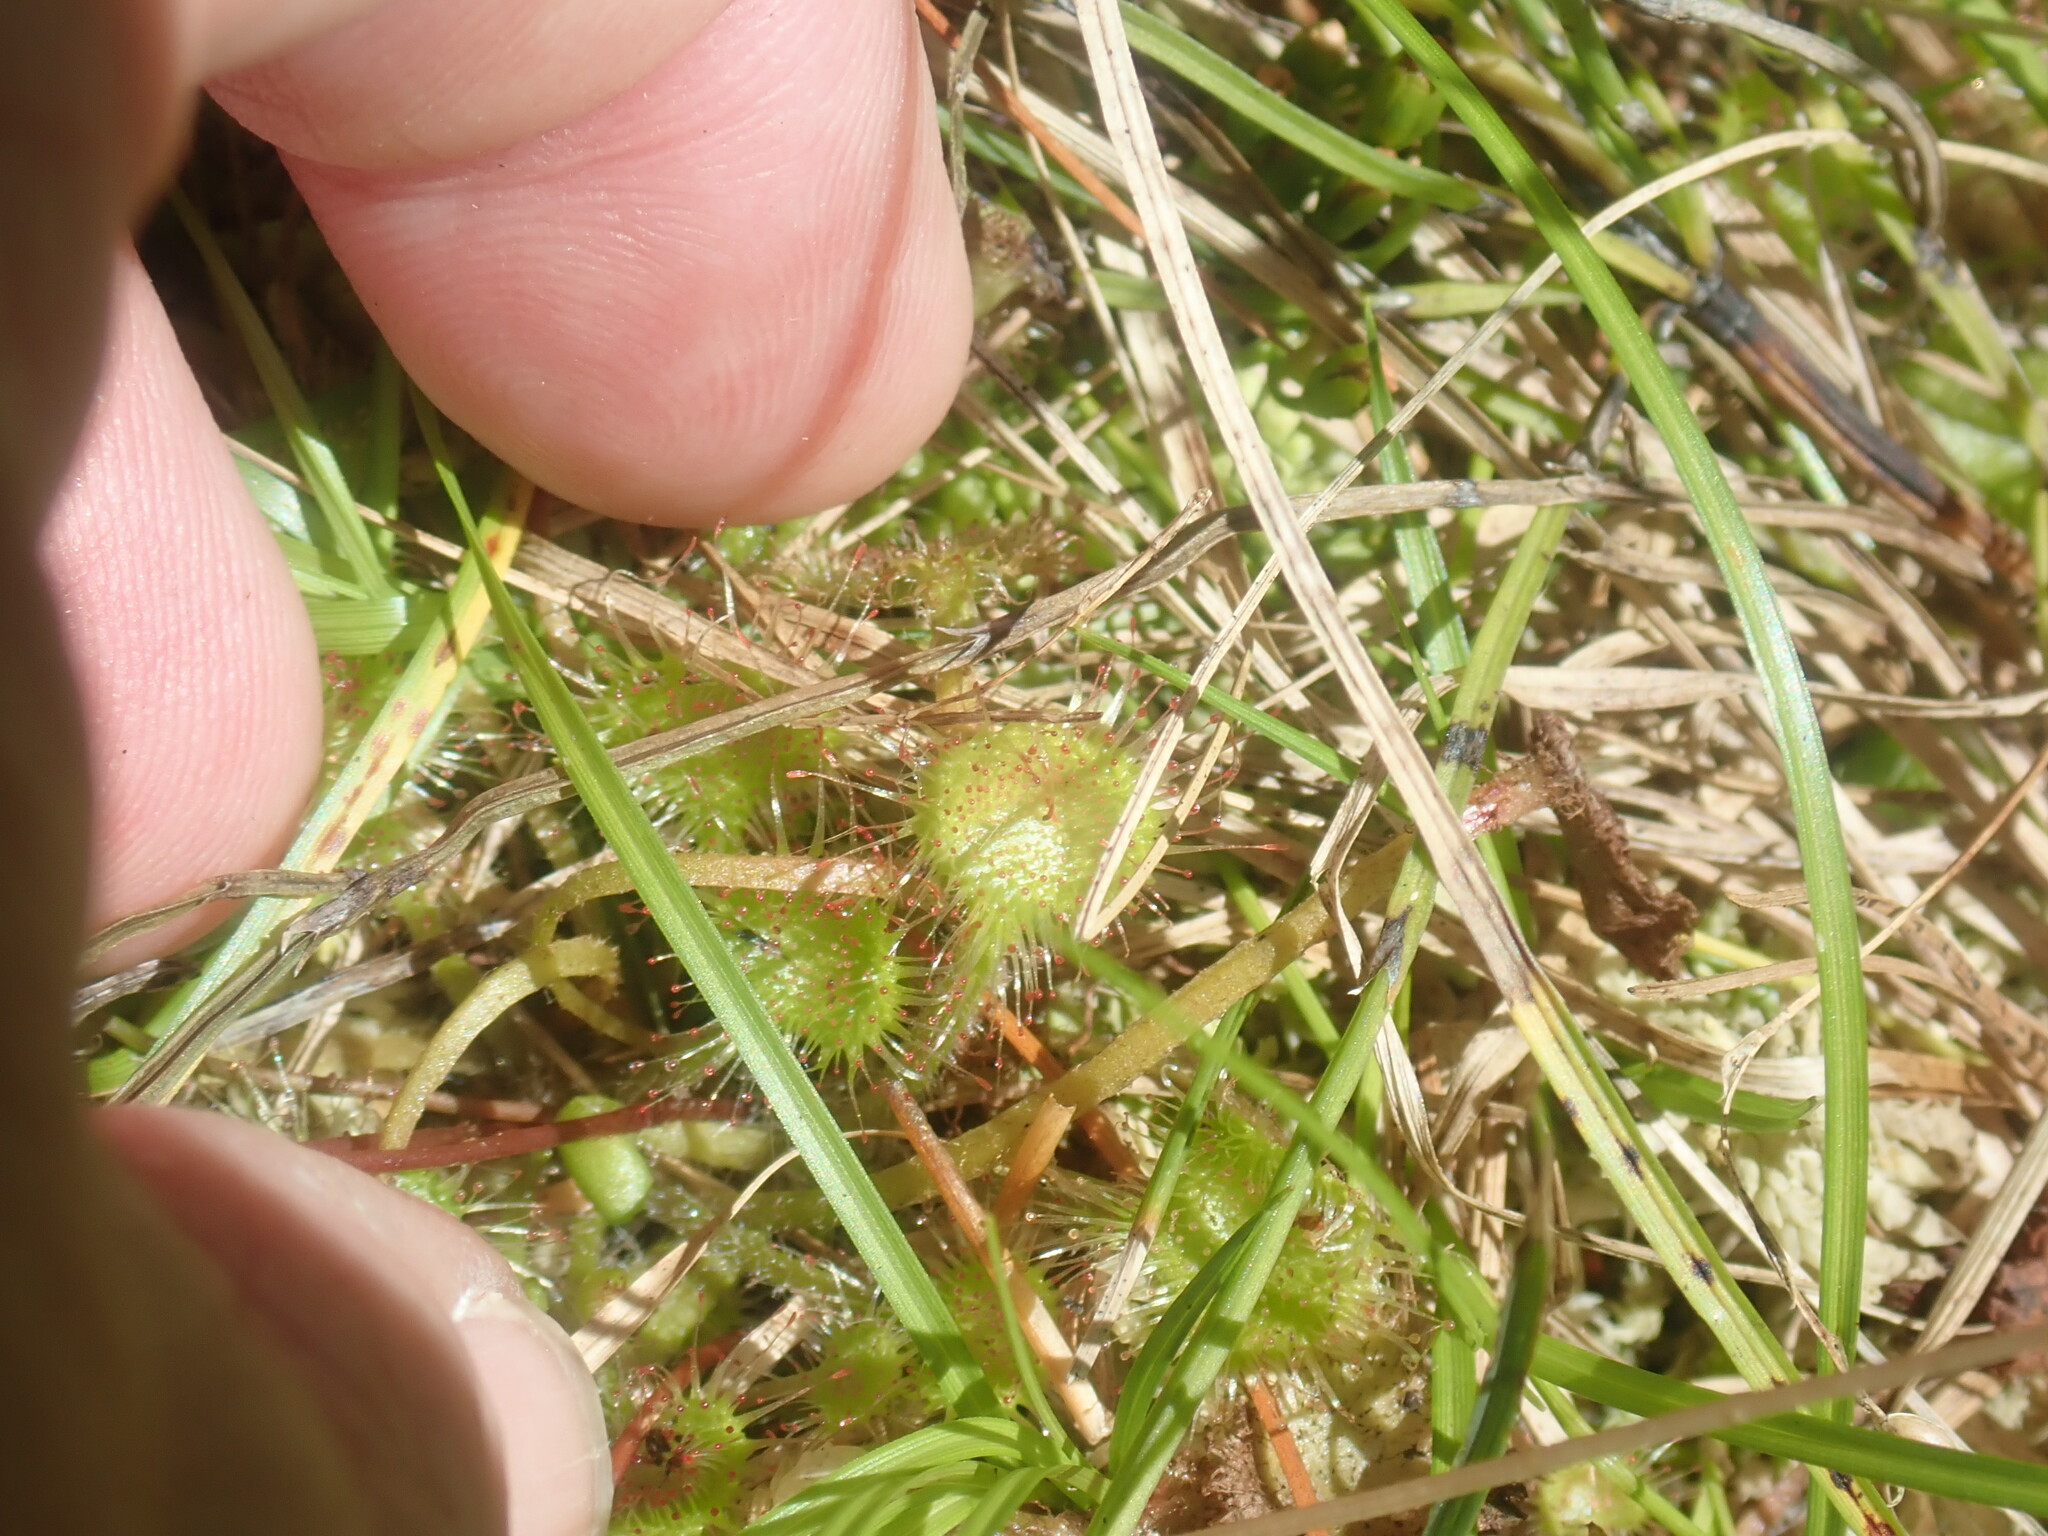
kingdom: Plantae
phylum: Tracheophyta
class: Magnoliopsida
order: Caryophyllales
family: Droseraceae
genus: Drosera
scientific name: Drosera rotundifolia
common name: Round-leaved sundew
